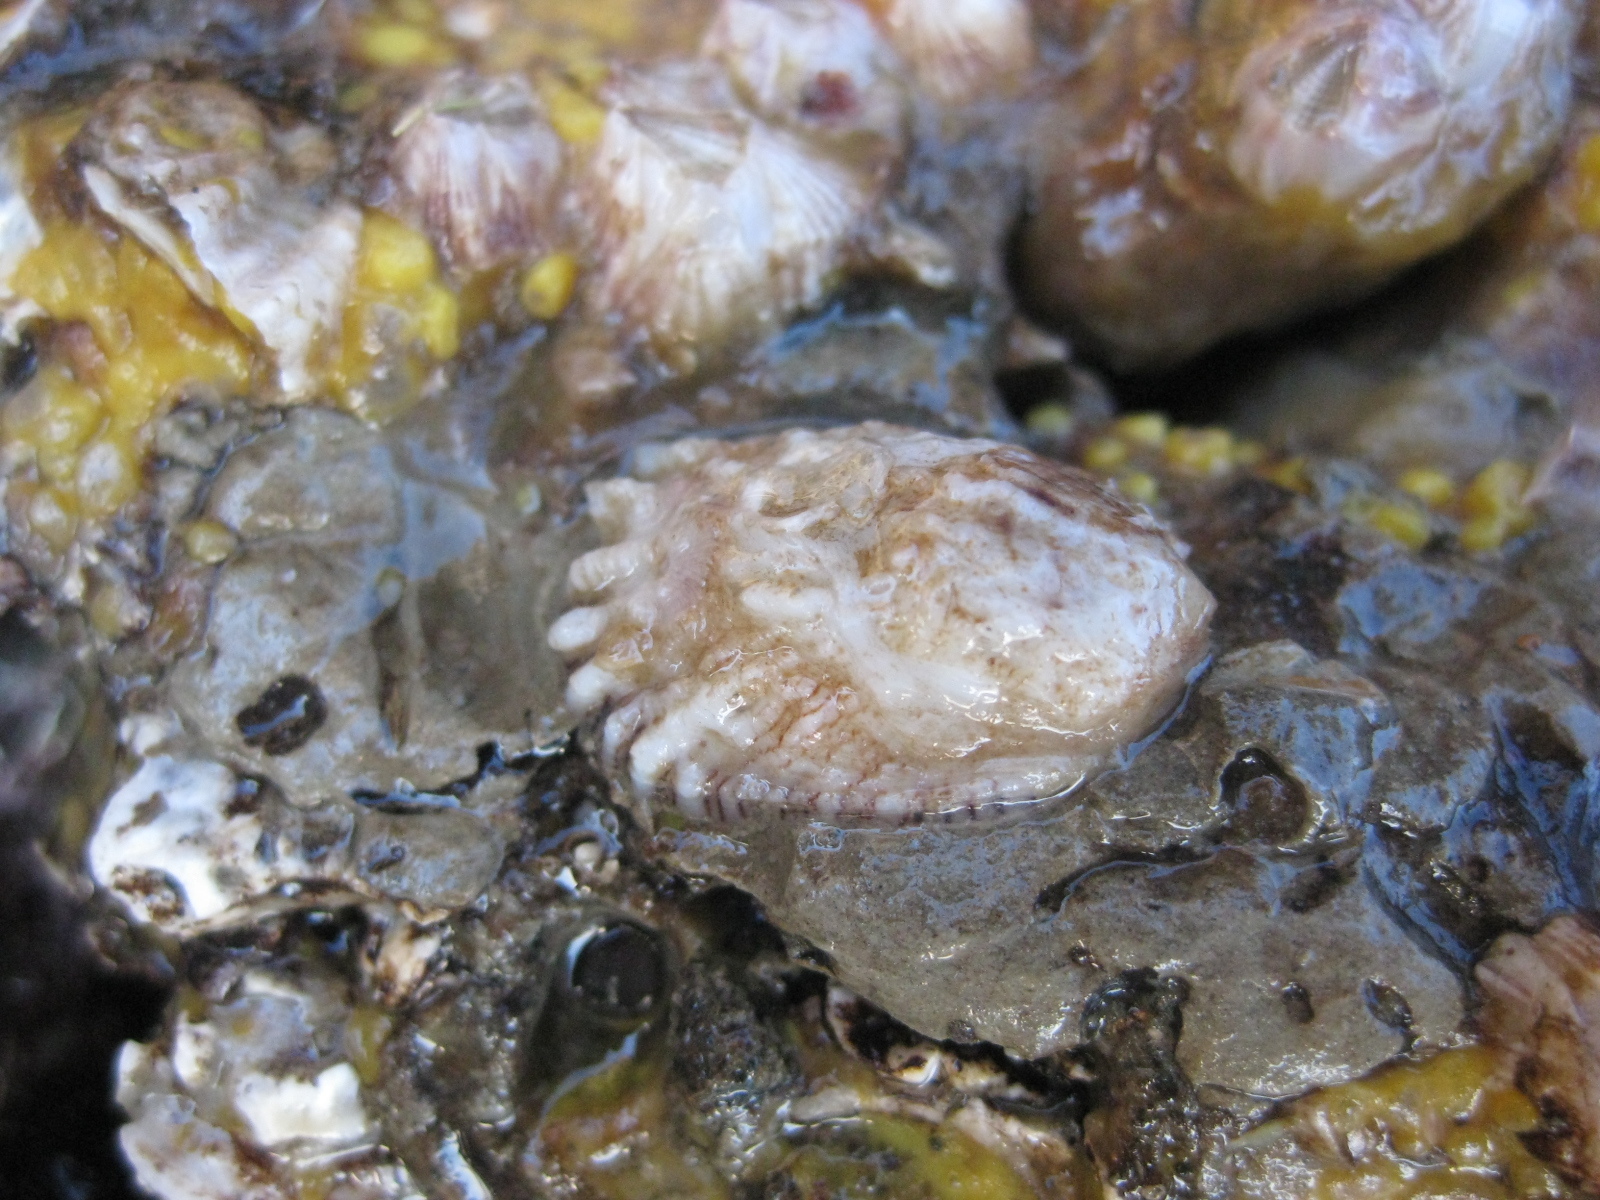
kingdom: Animalia
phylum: Mollusca
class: Gastropoda
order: Littorinimorpha
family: Calyptraeidae
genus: Maoricrypta
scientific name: Maoricrypta costata
